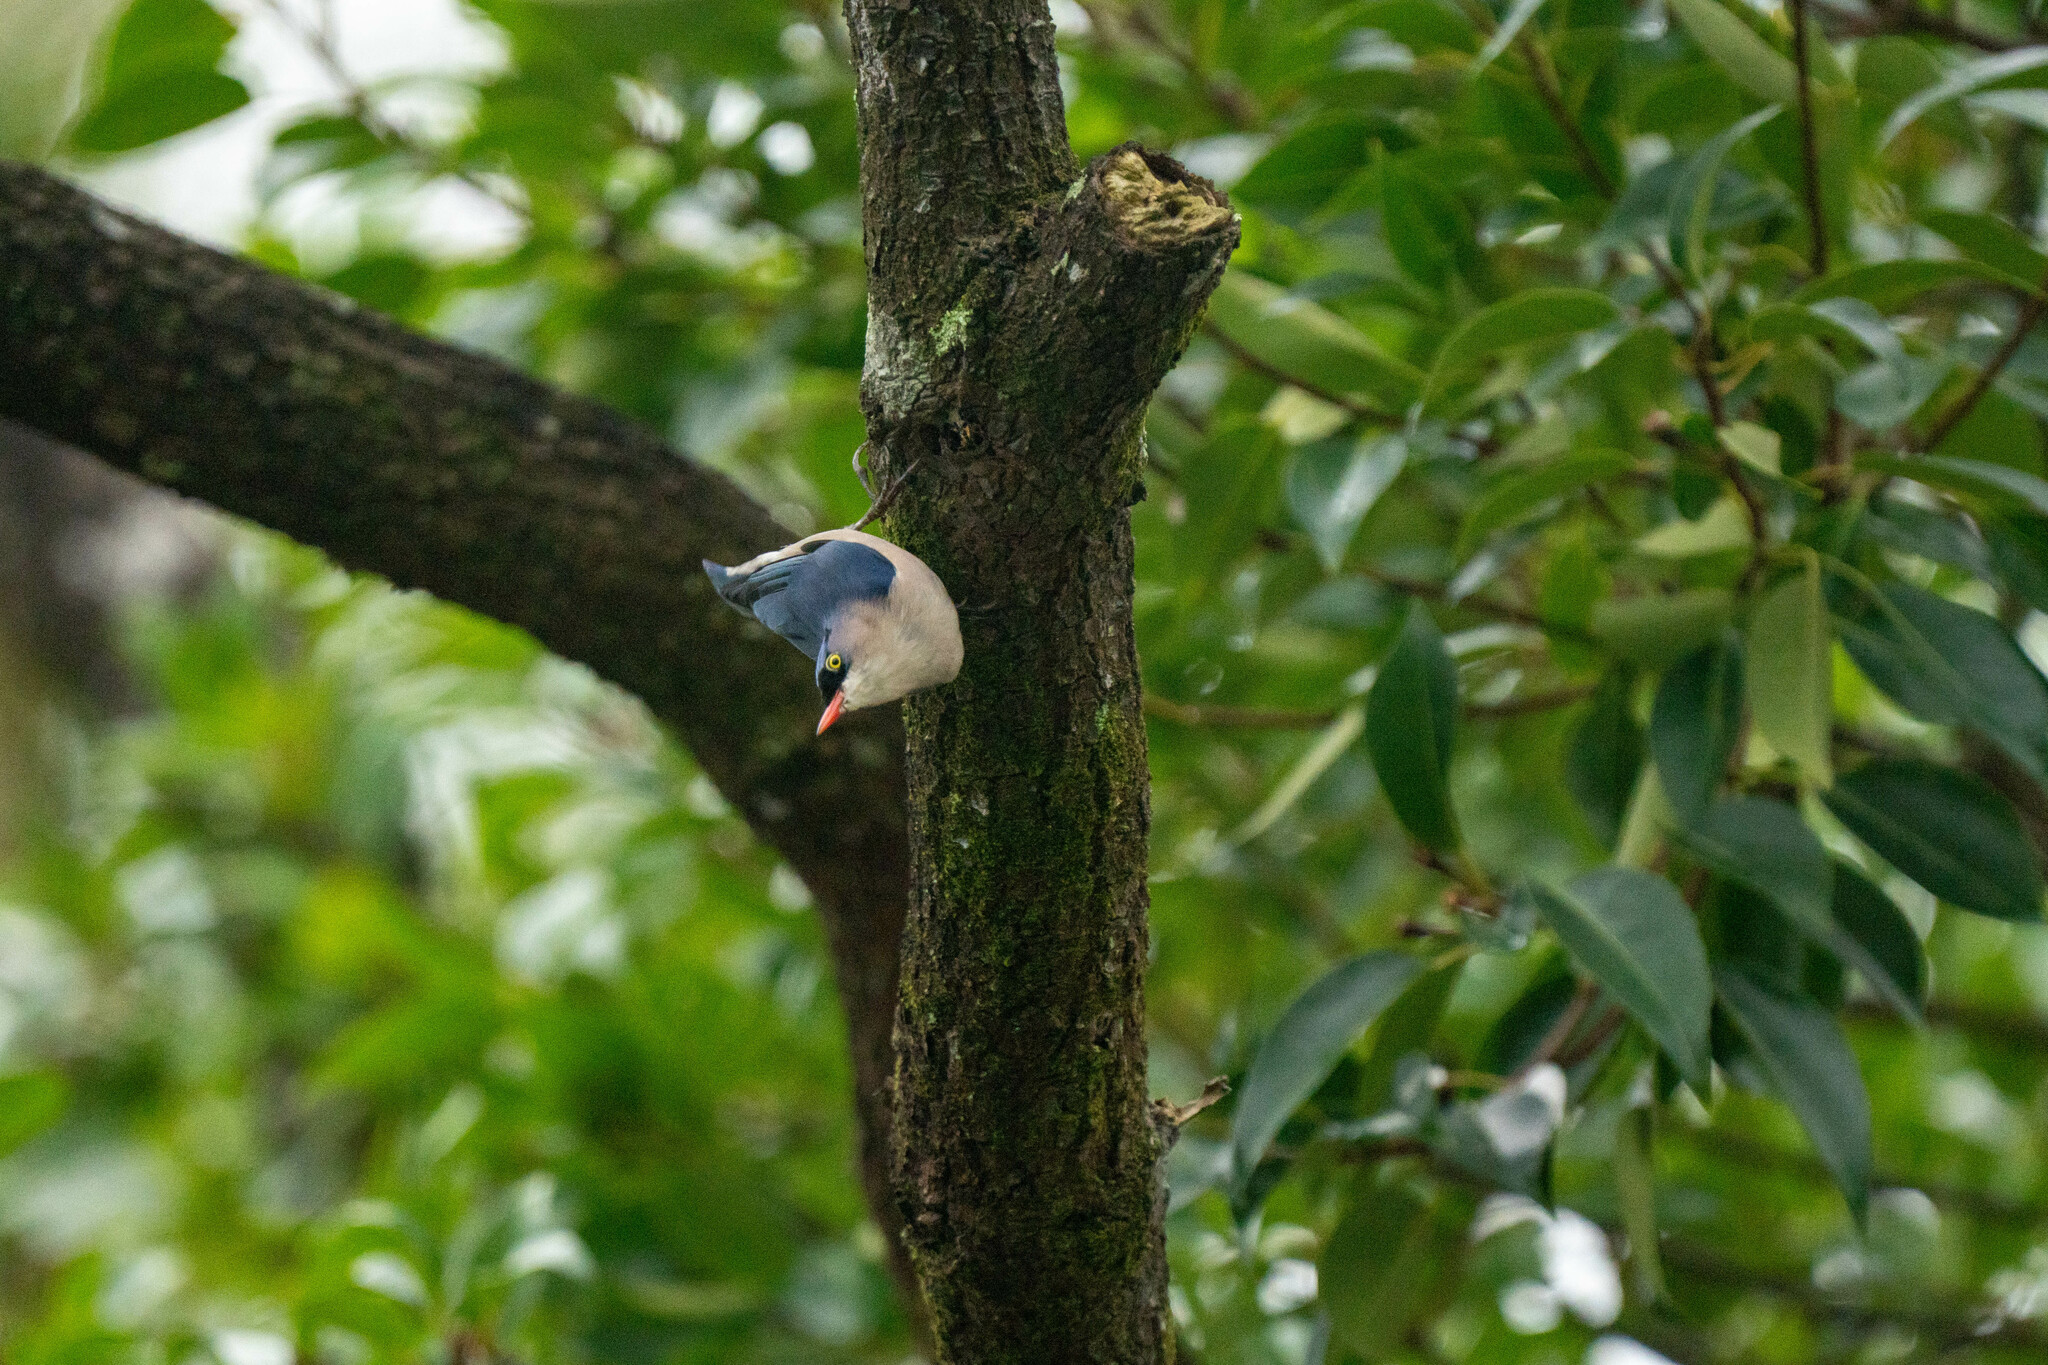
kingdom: Animalia
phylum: Chordata
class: Aves
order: Passeriformes
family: Sittidae
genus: Sitta
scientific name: Sitta frontalis
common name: Velvet-fronted nuthatch
